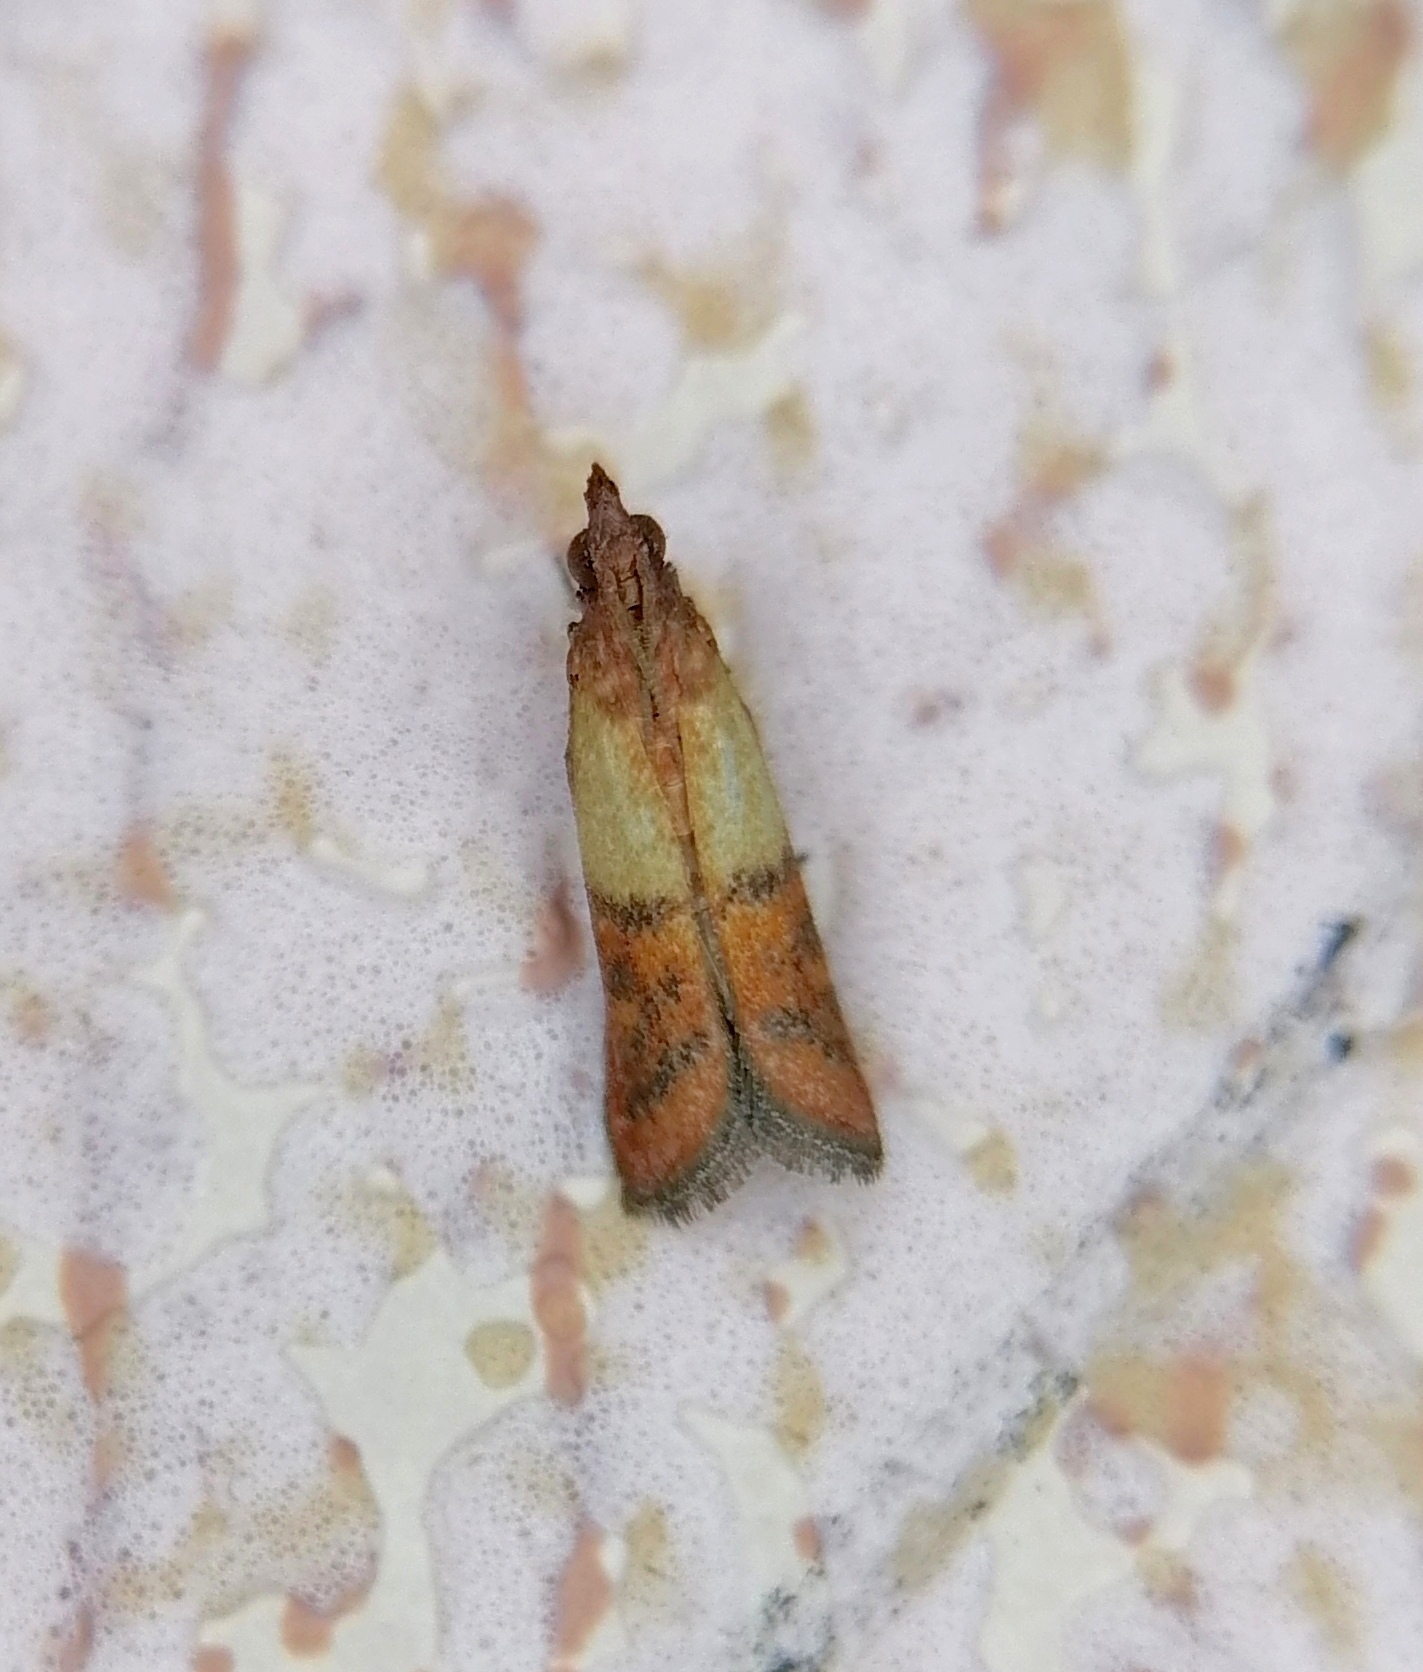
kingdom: Animalia
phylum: Arthropoda
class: Insecta
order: Lepidoptera
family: Pyralidae
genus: Plodia
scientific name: Plodia interpunctella
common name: Indian meal moth
